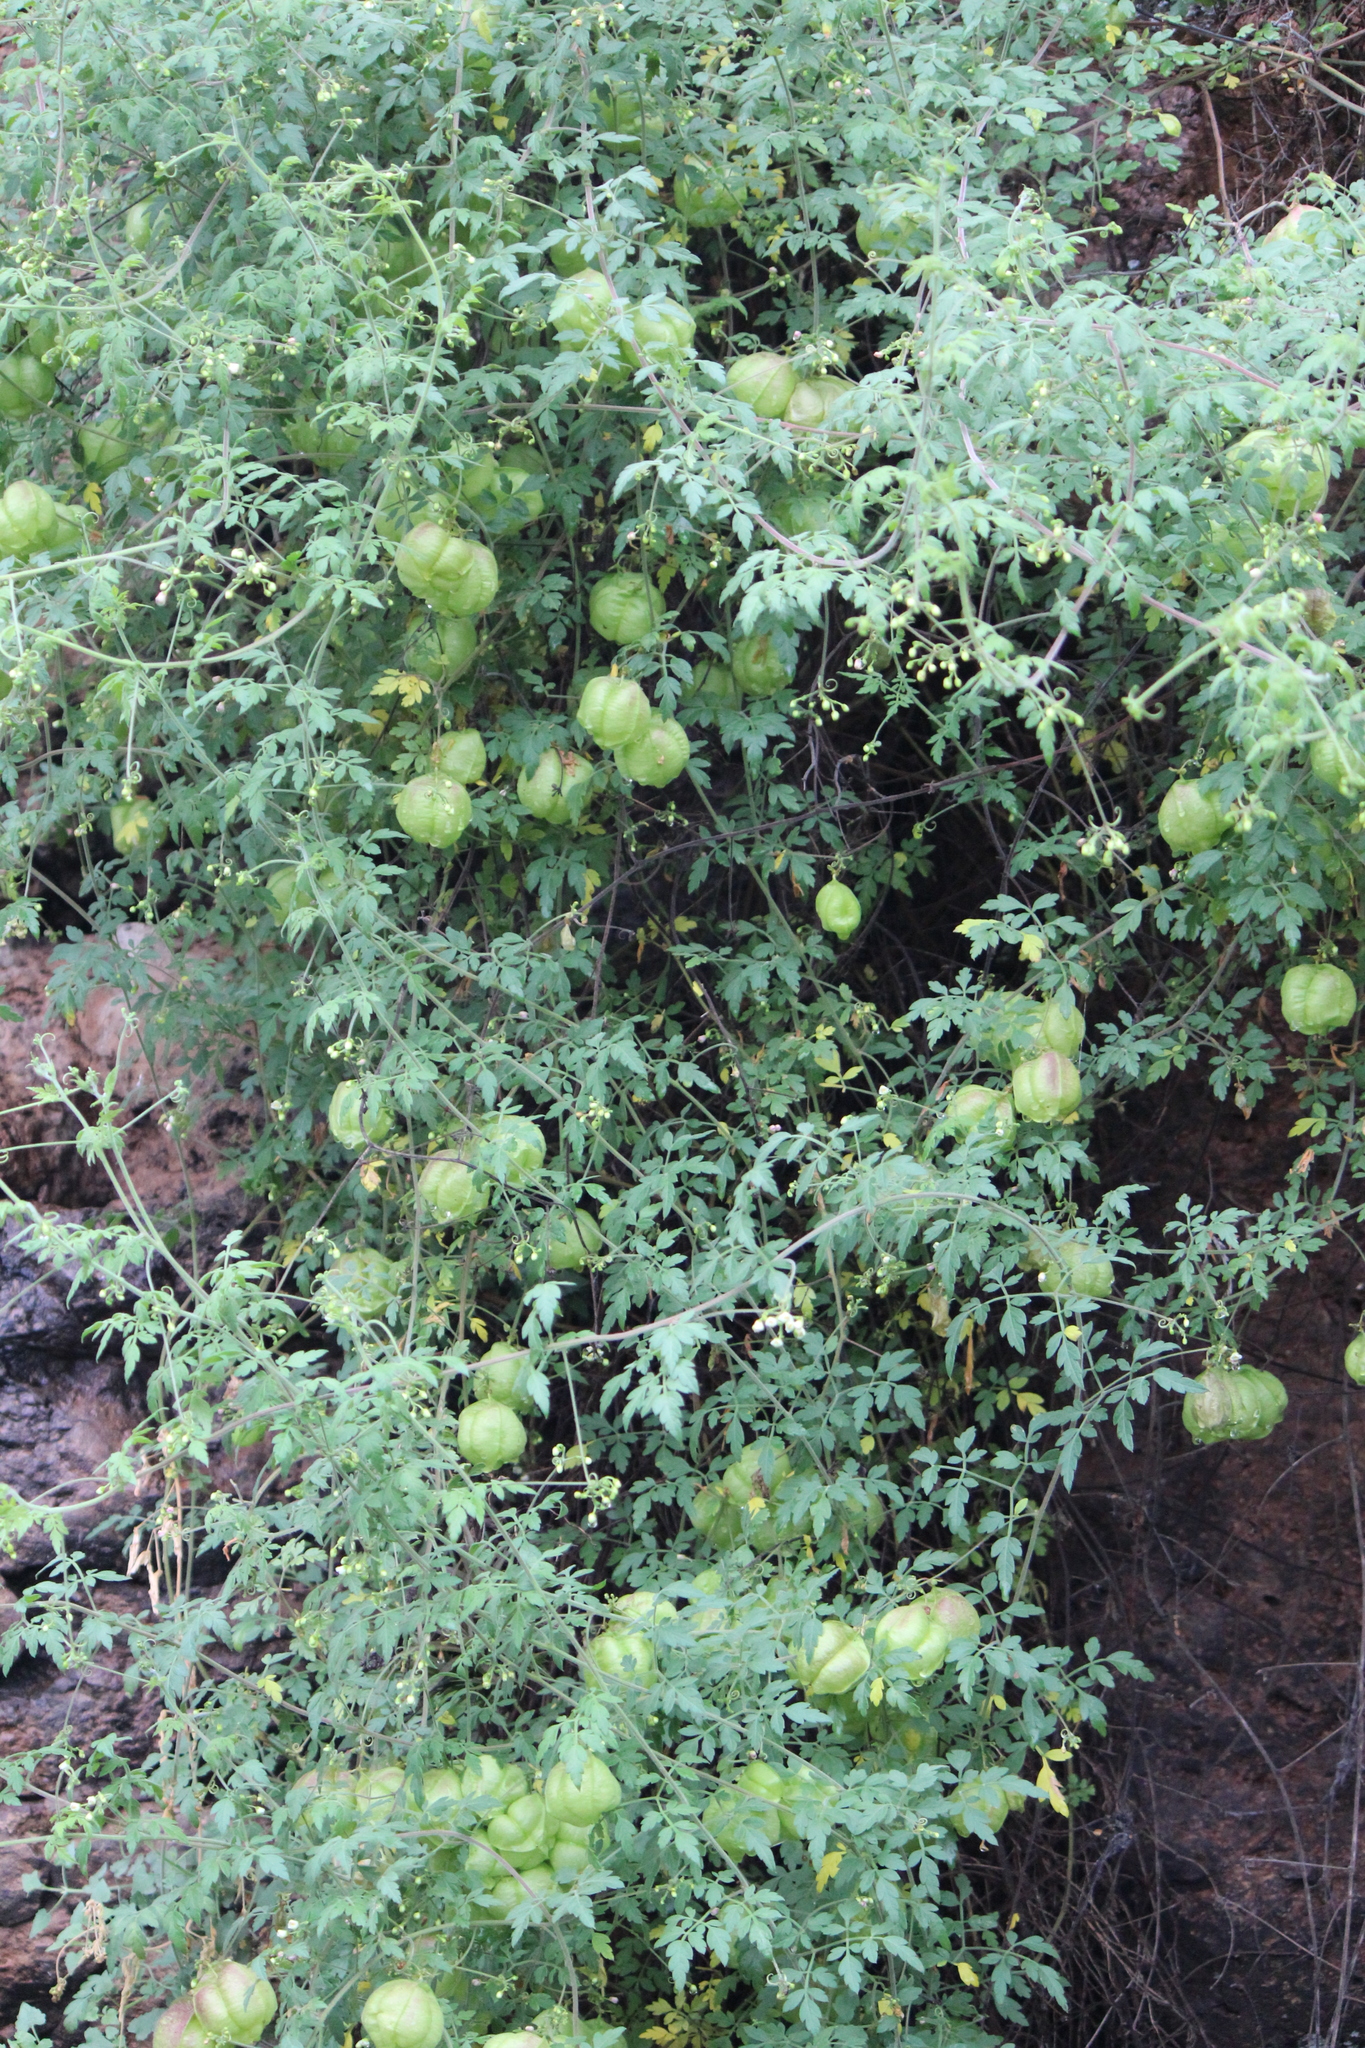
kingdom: Plantae
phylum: Tracheophyta
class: Magnoliopsida
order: Sapindales
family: Sapindaceae
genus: Cardiospermum
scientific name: Cardiospermum halicacabum
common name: Balloon vine
